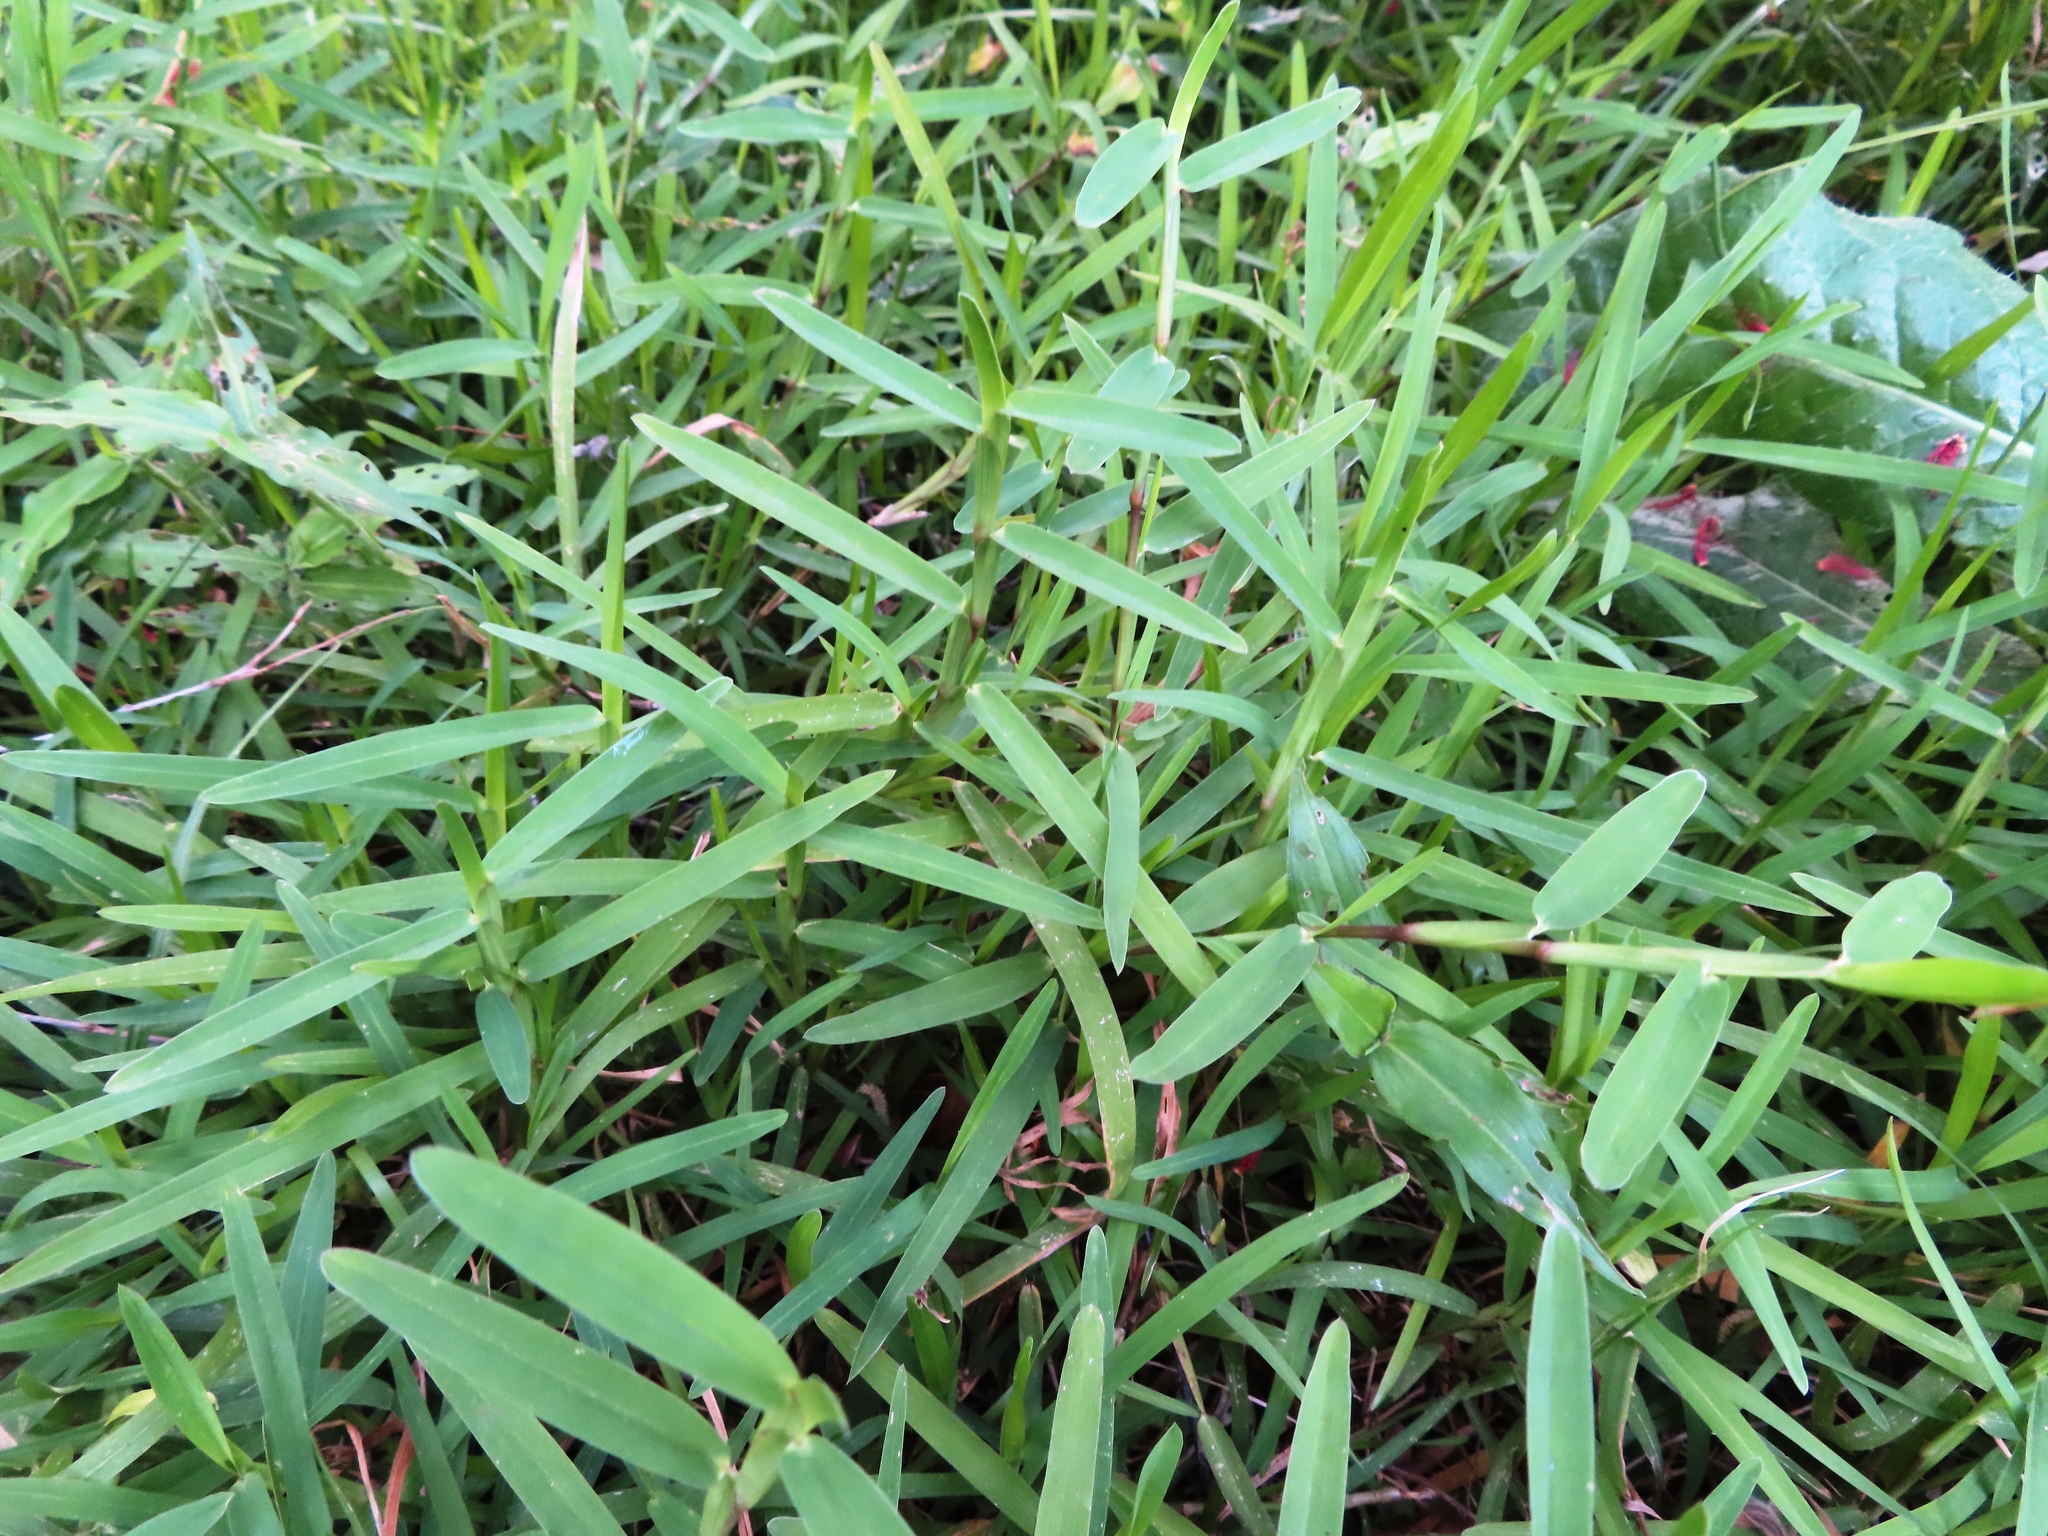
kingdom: Plantae
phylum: Tracheophyta
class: Liliopsida
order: Poales
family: Poaceae
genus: Stenotaphrum
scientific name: Stenotaphrum secundatum
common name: St. augustine grass
